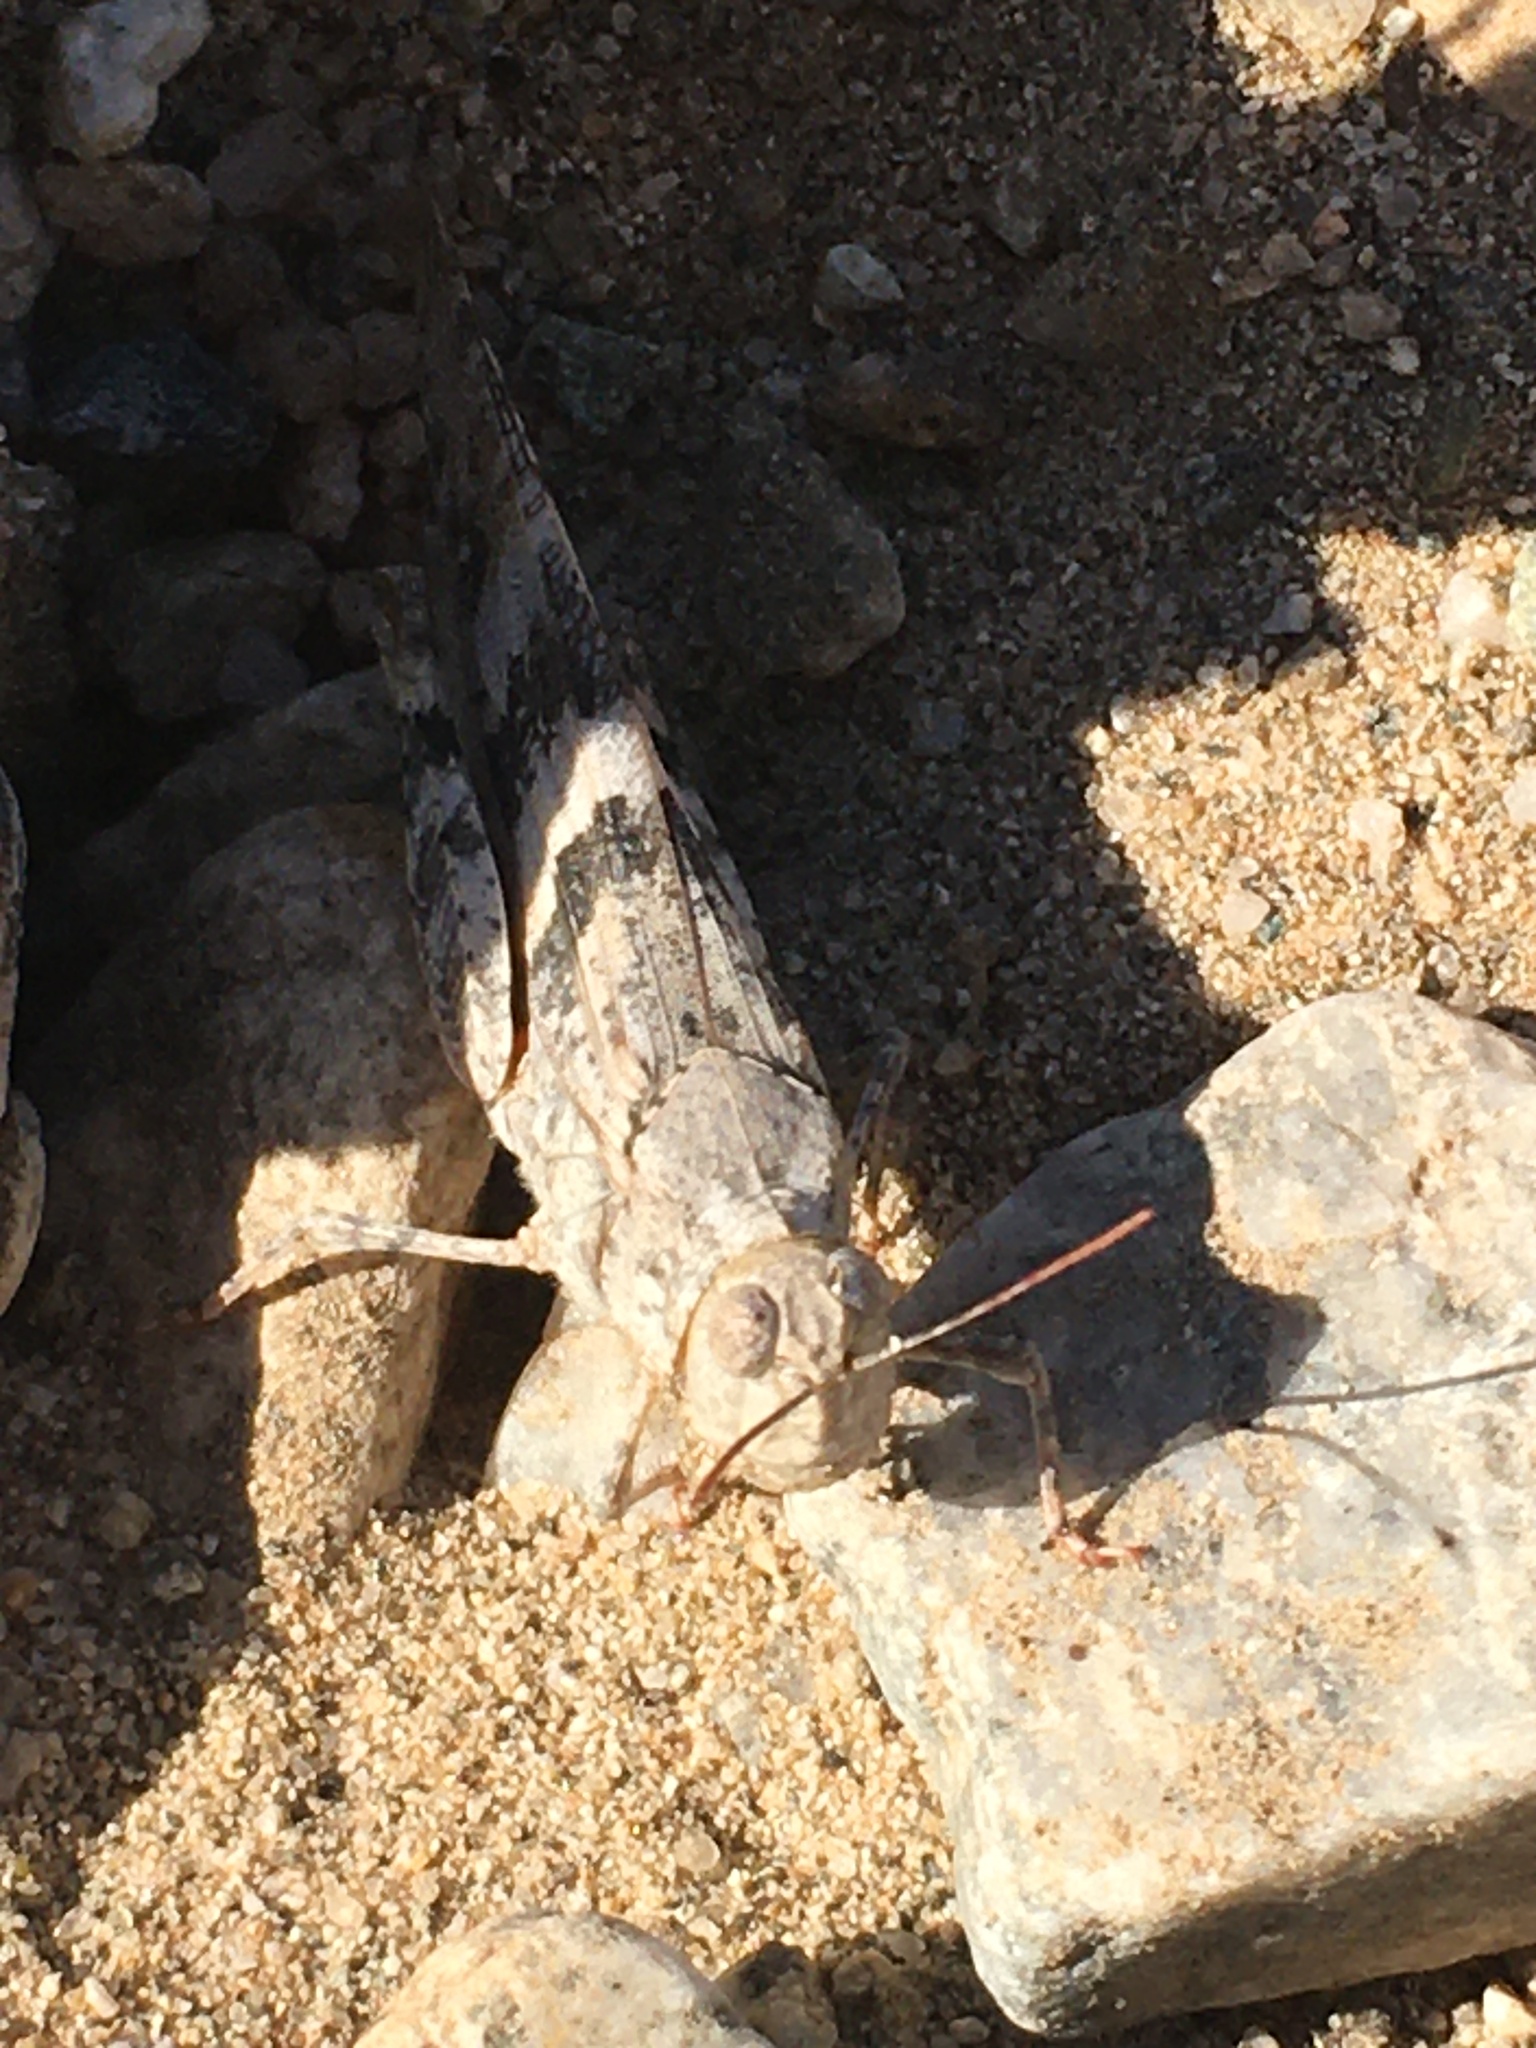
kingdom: Animalia
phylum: Arthropoda
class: Insecta
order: Orthoptera
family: Acrididae
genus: Trimerotropis
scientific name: Trimerotropis pallidipennis
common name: Pallid-winged grasshopper
